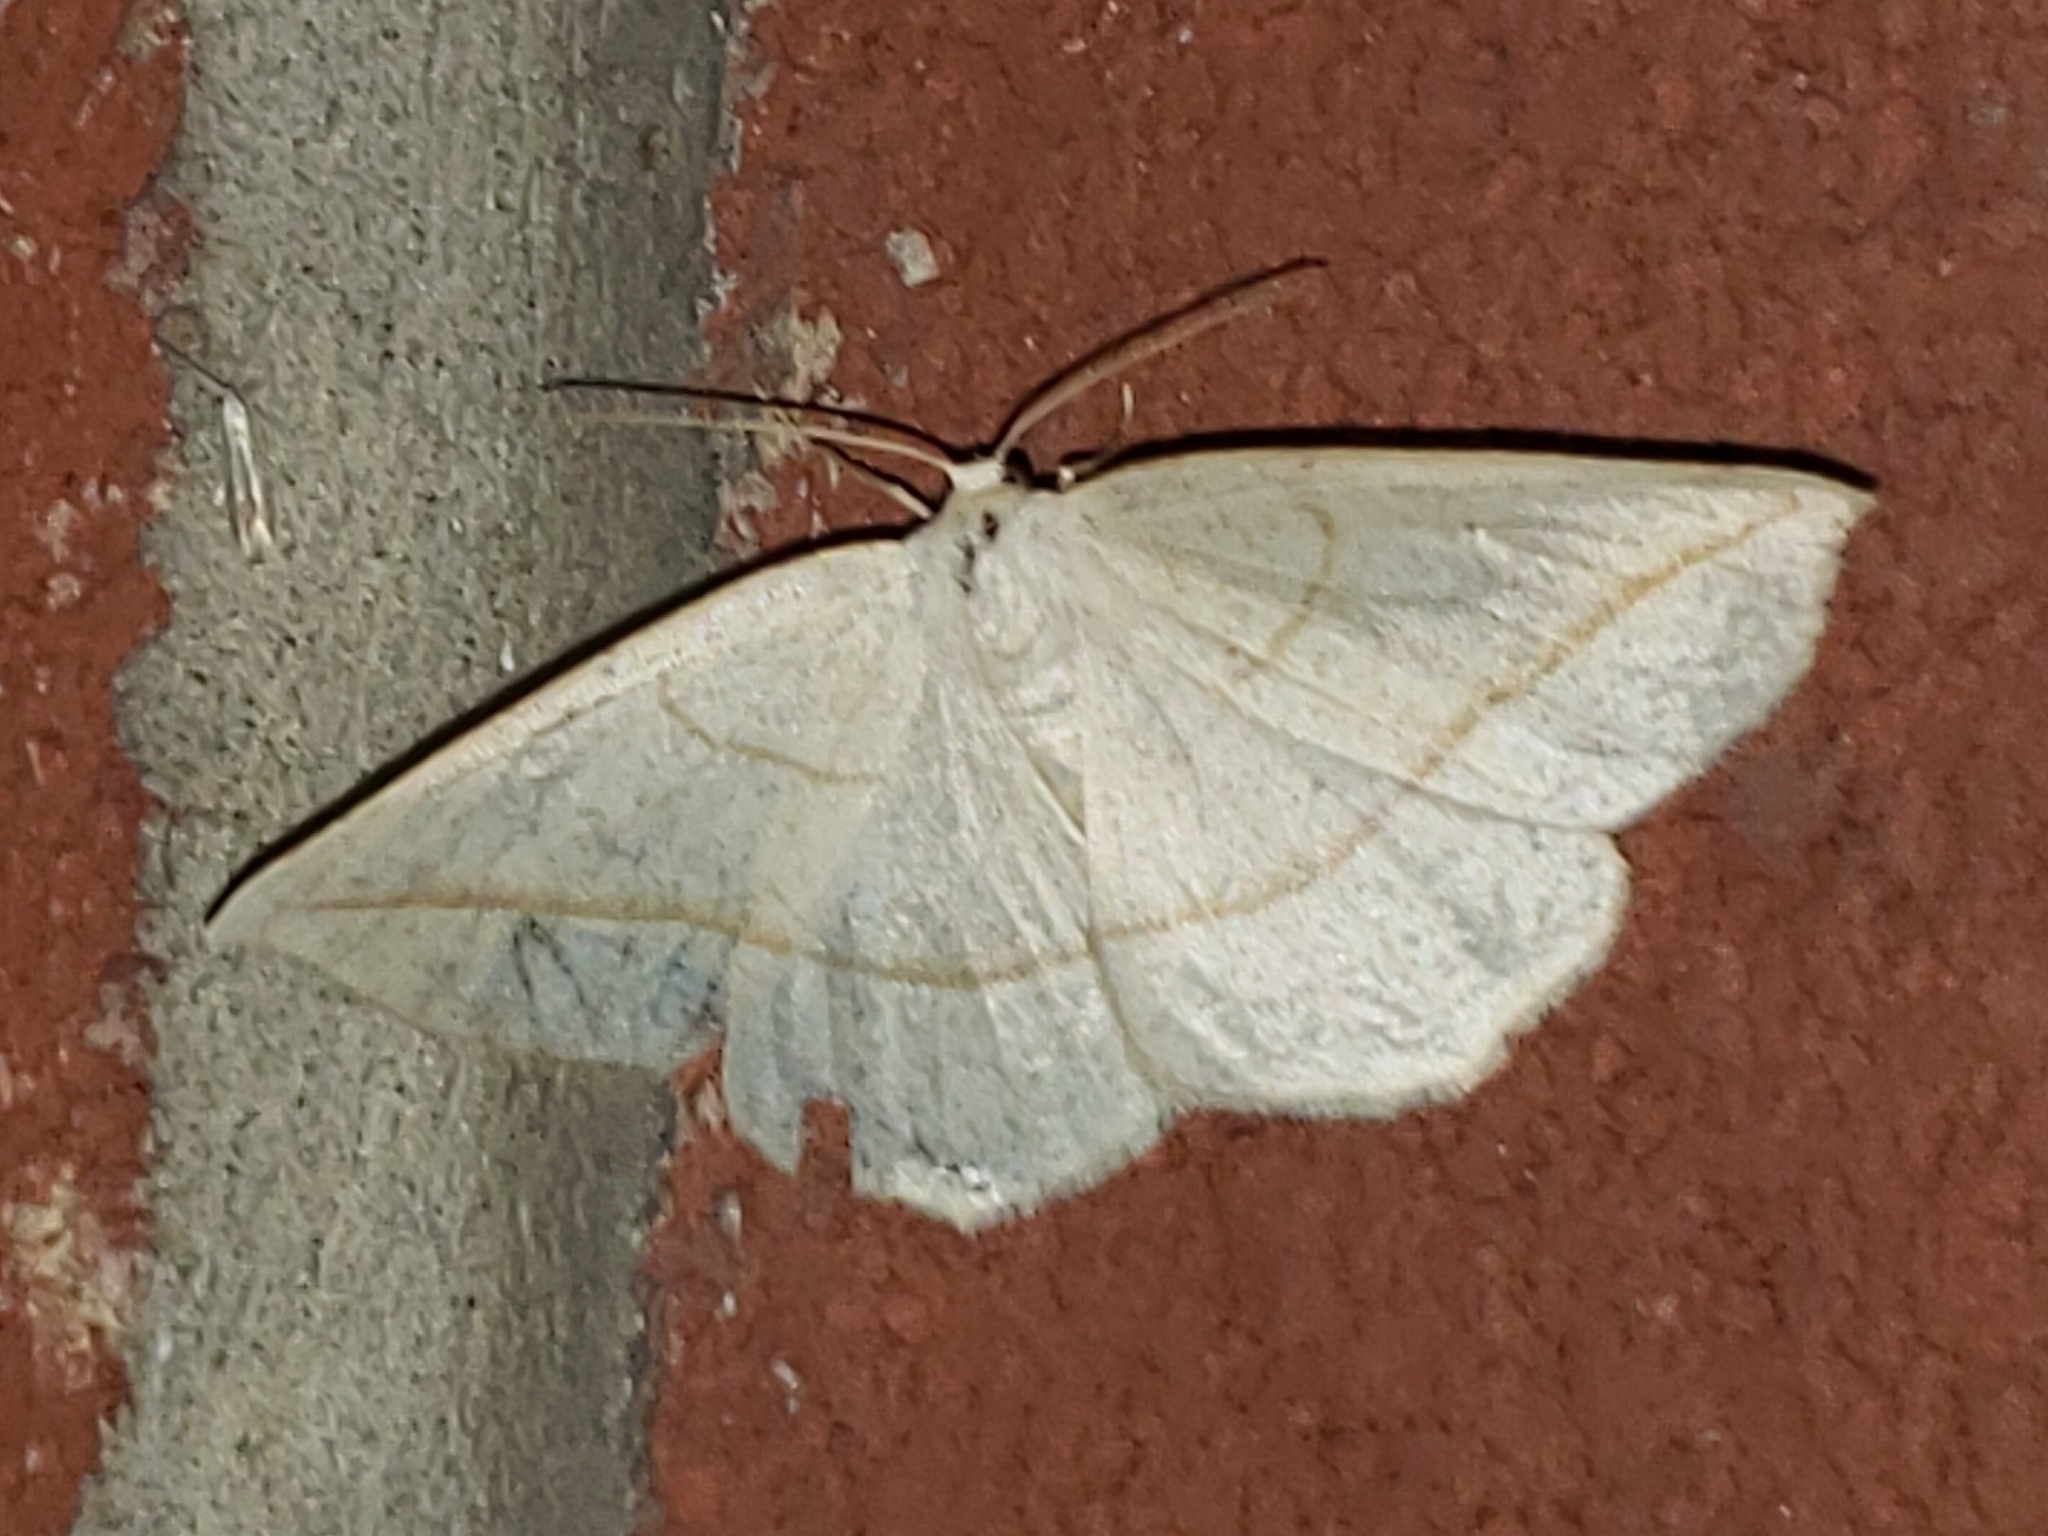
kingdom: Animalia
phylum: Arthropoda
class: Insecta
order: Lepidoptera
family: Geometridae
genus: Eusarca
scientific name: Eusarca confusaria
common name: Confused eusarca
